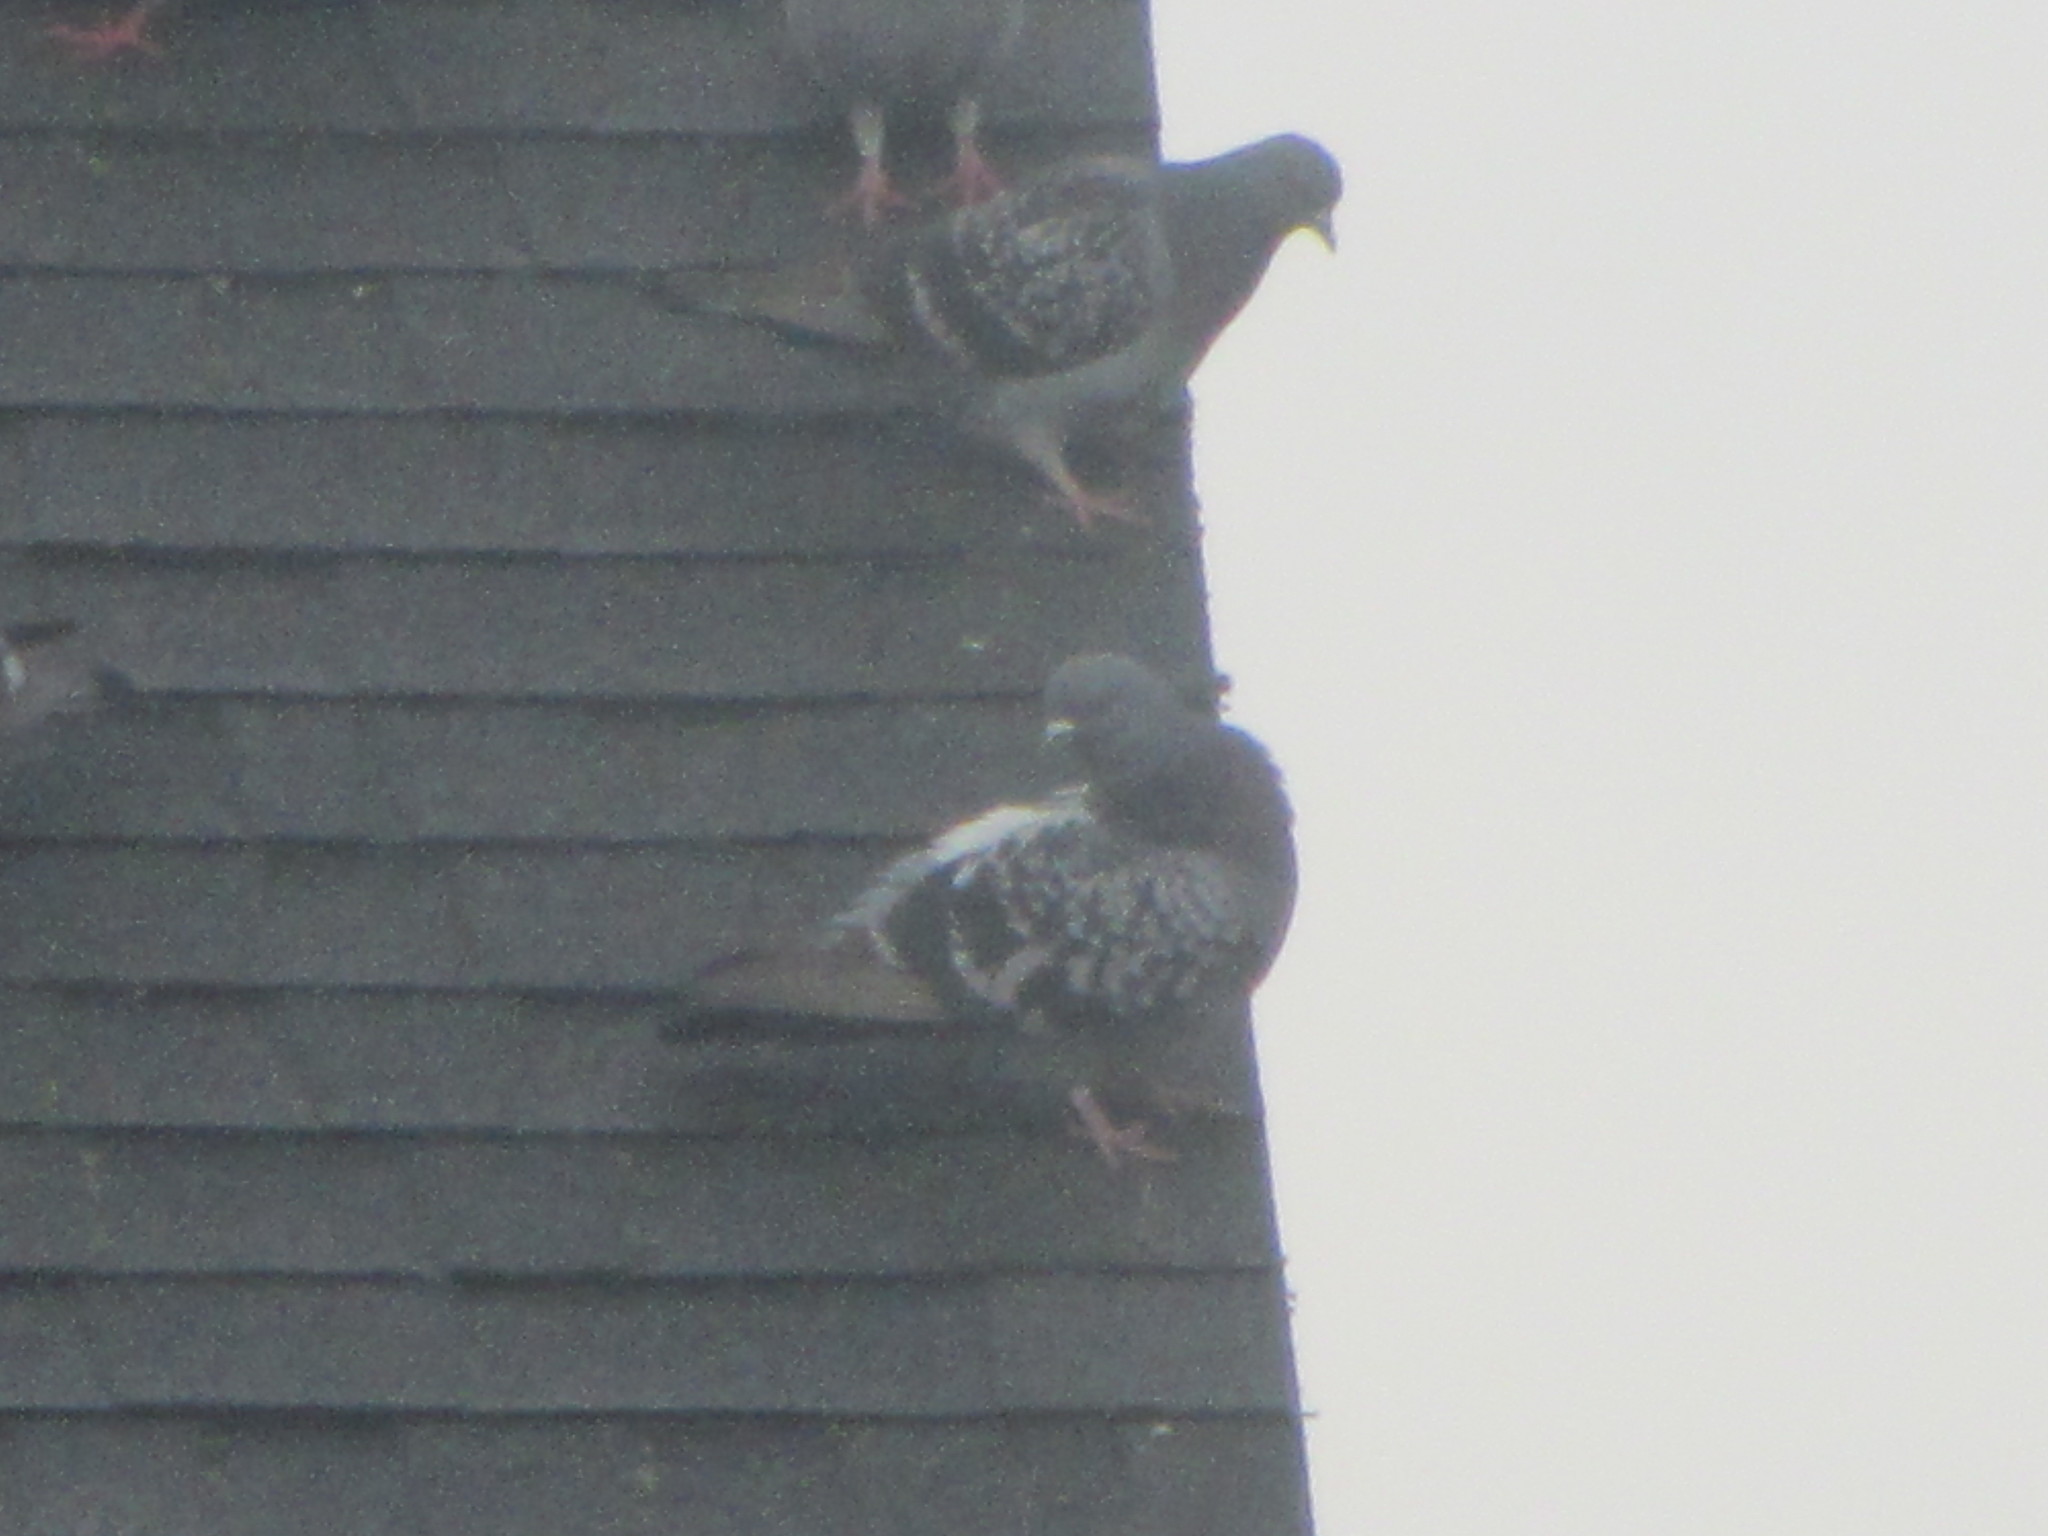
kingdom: Animalia
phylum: Chordata
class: Aves
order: Columbiformes
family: Columbidae
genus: Columba
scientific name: Columba livia
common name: Rock pigeon
